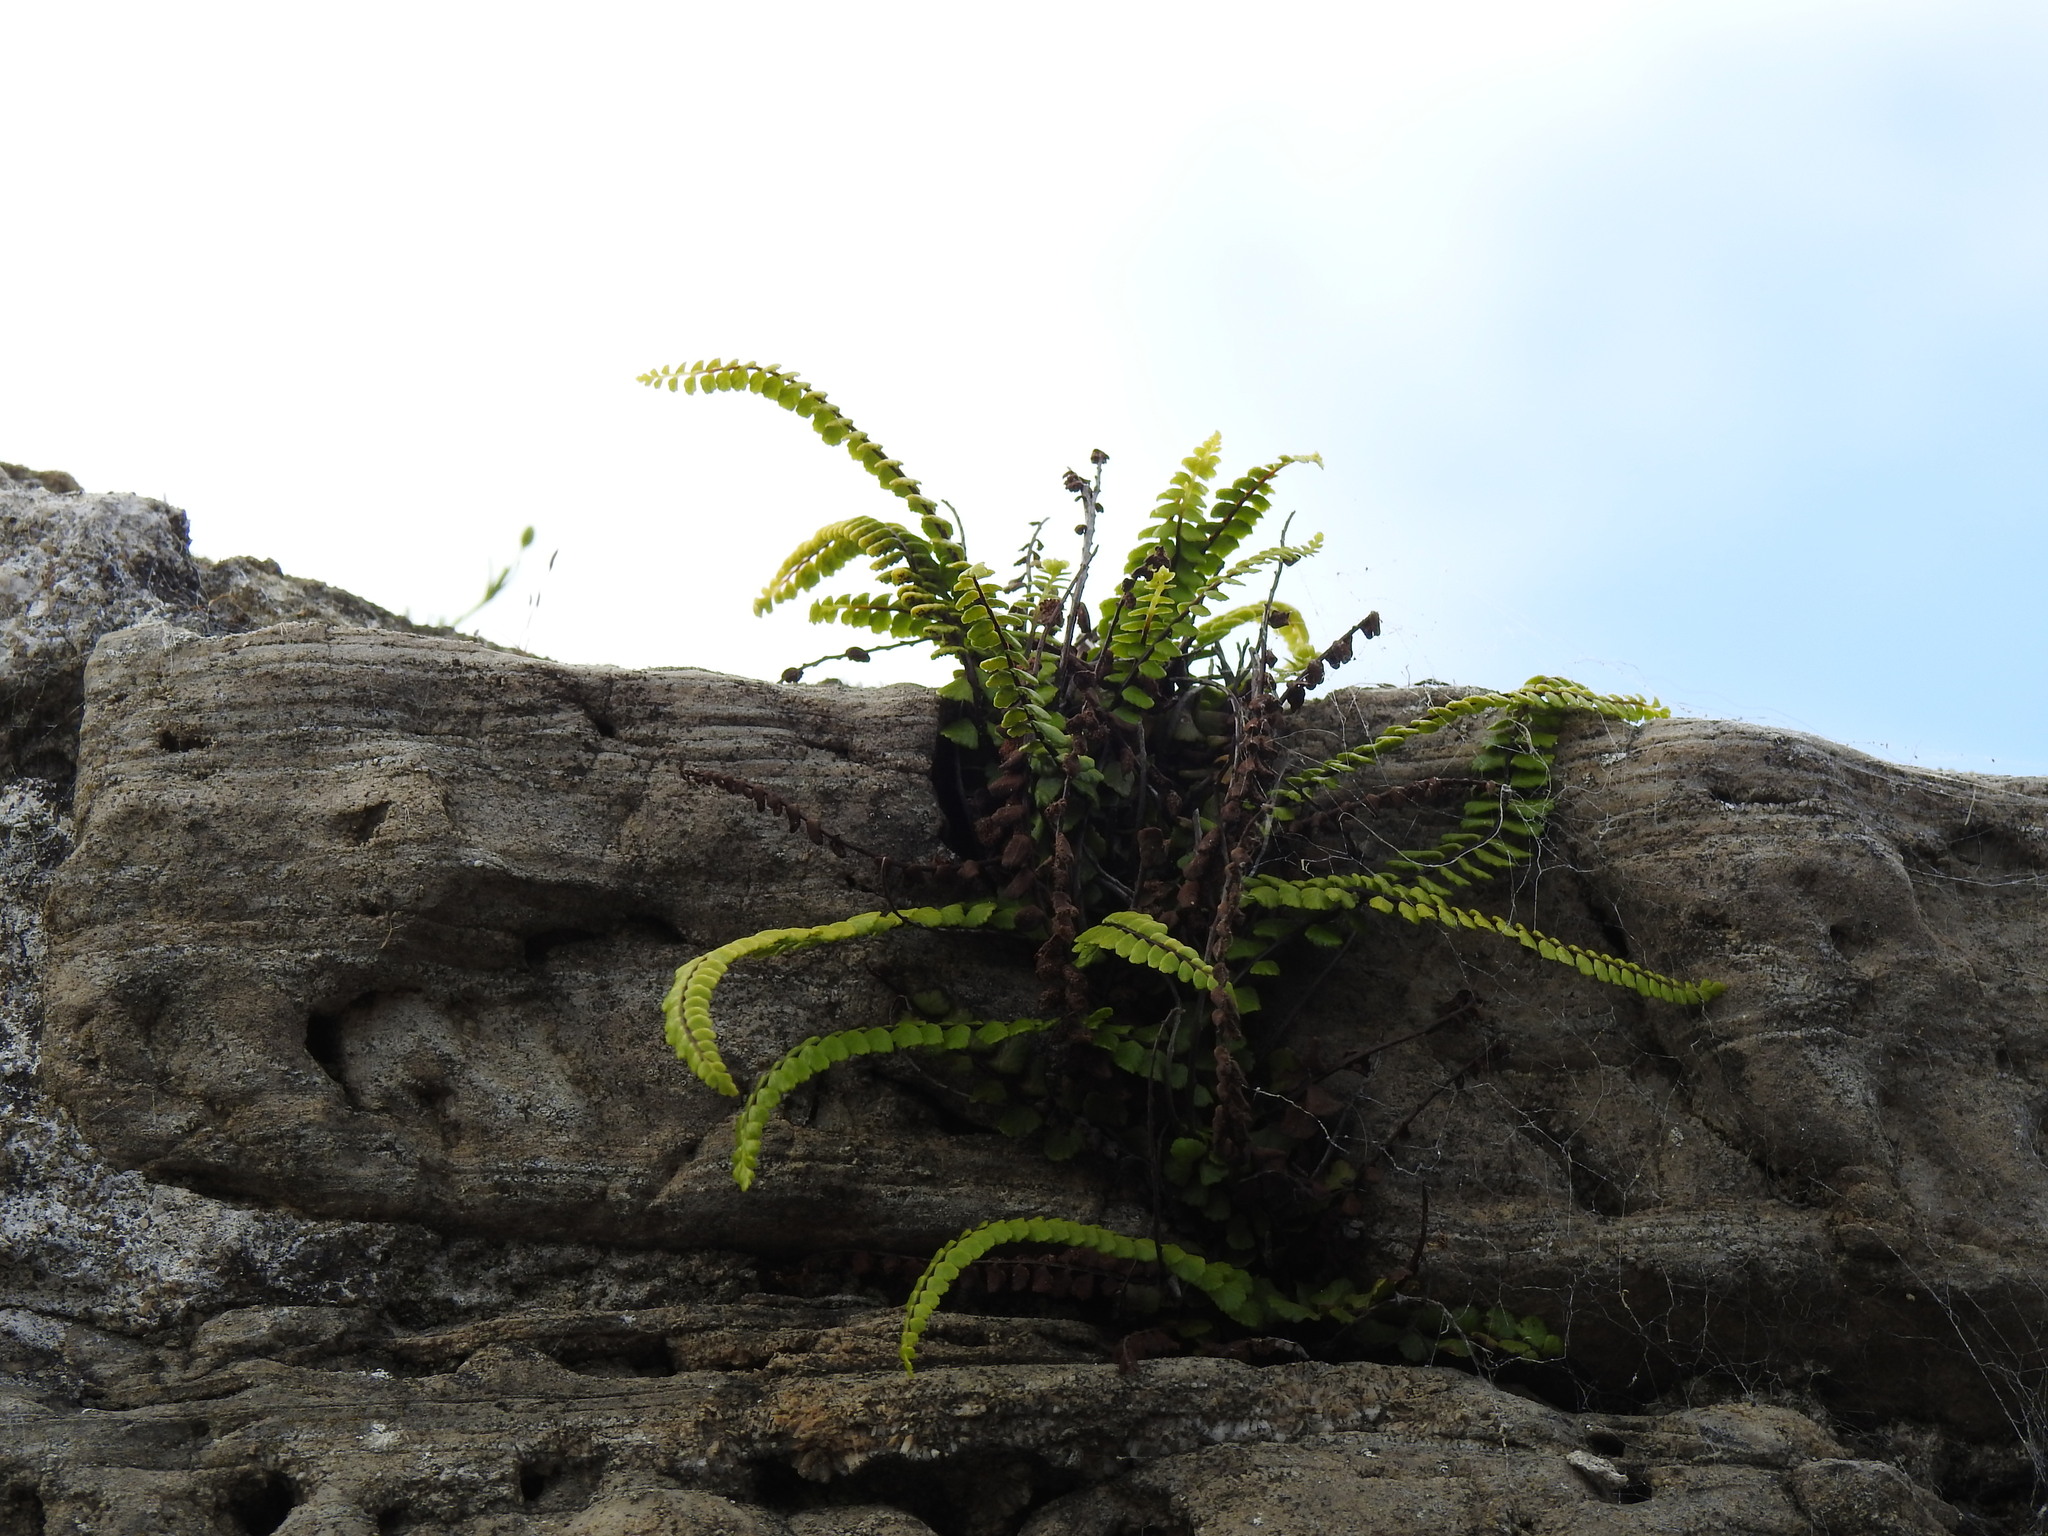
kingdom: Plantae
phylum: Tracheophyta
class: Polypodiopsida
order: Polypodiales
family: Aspleniaceae
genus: Asplenium
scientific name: Asplenium trichomanes
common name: Maidenhair spleenwort
